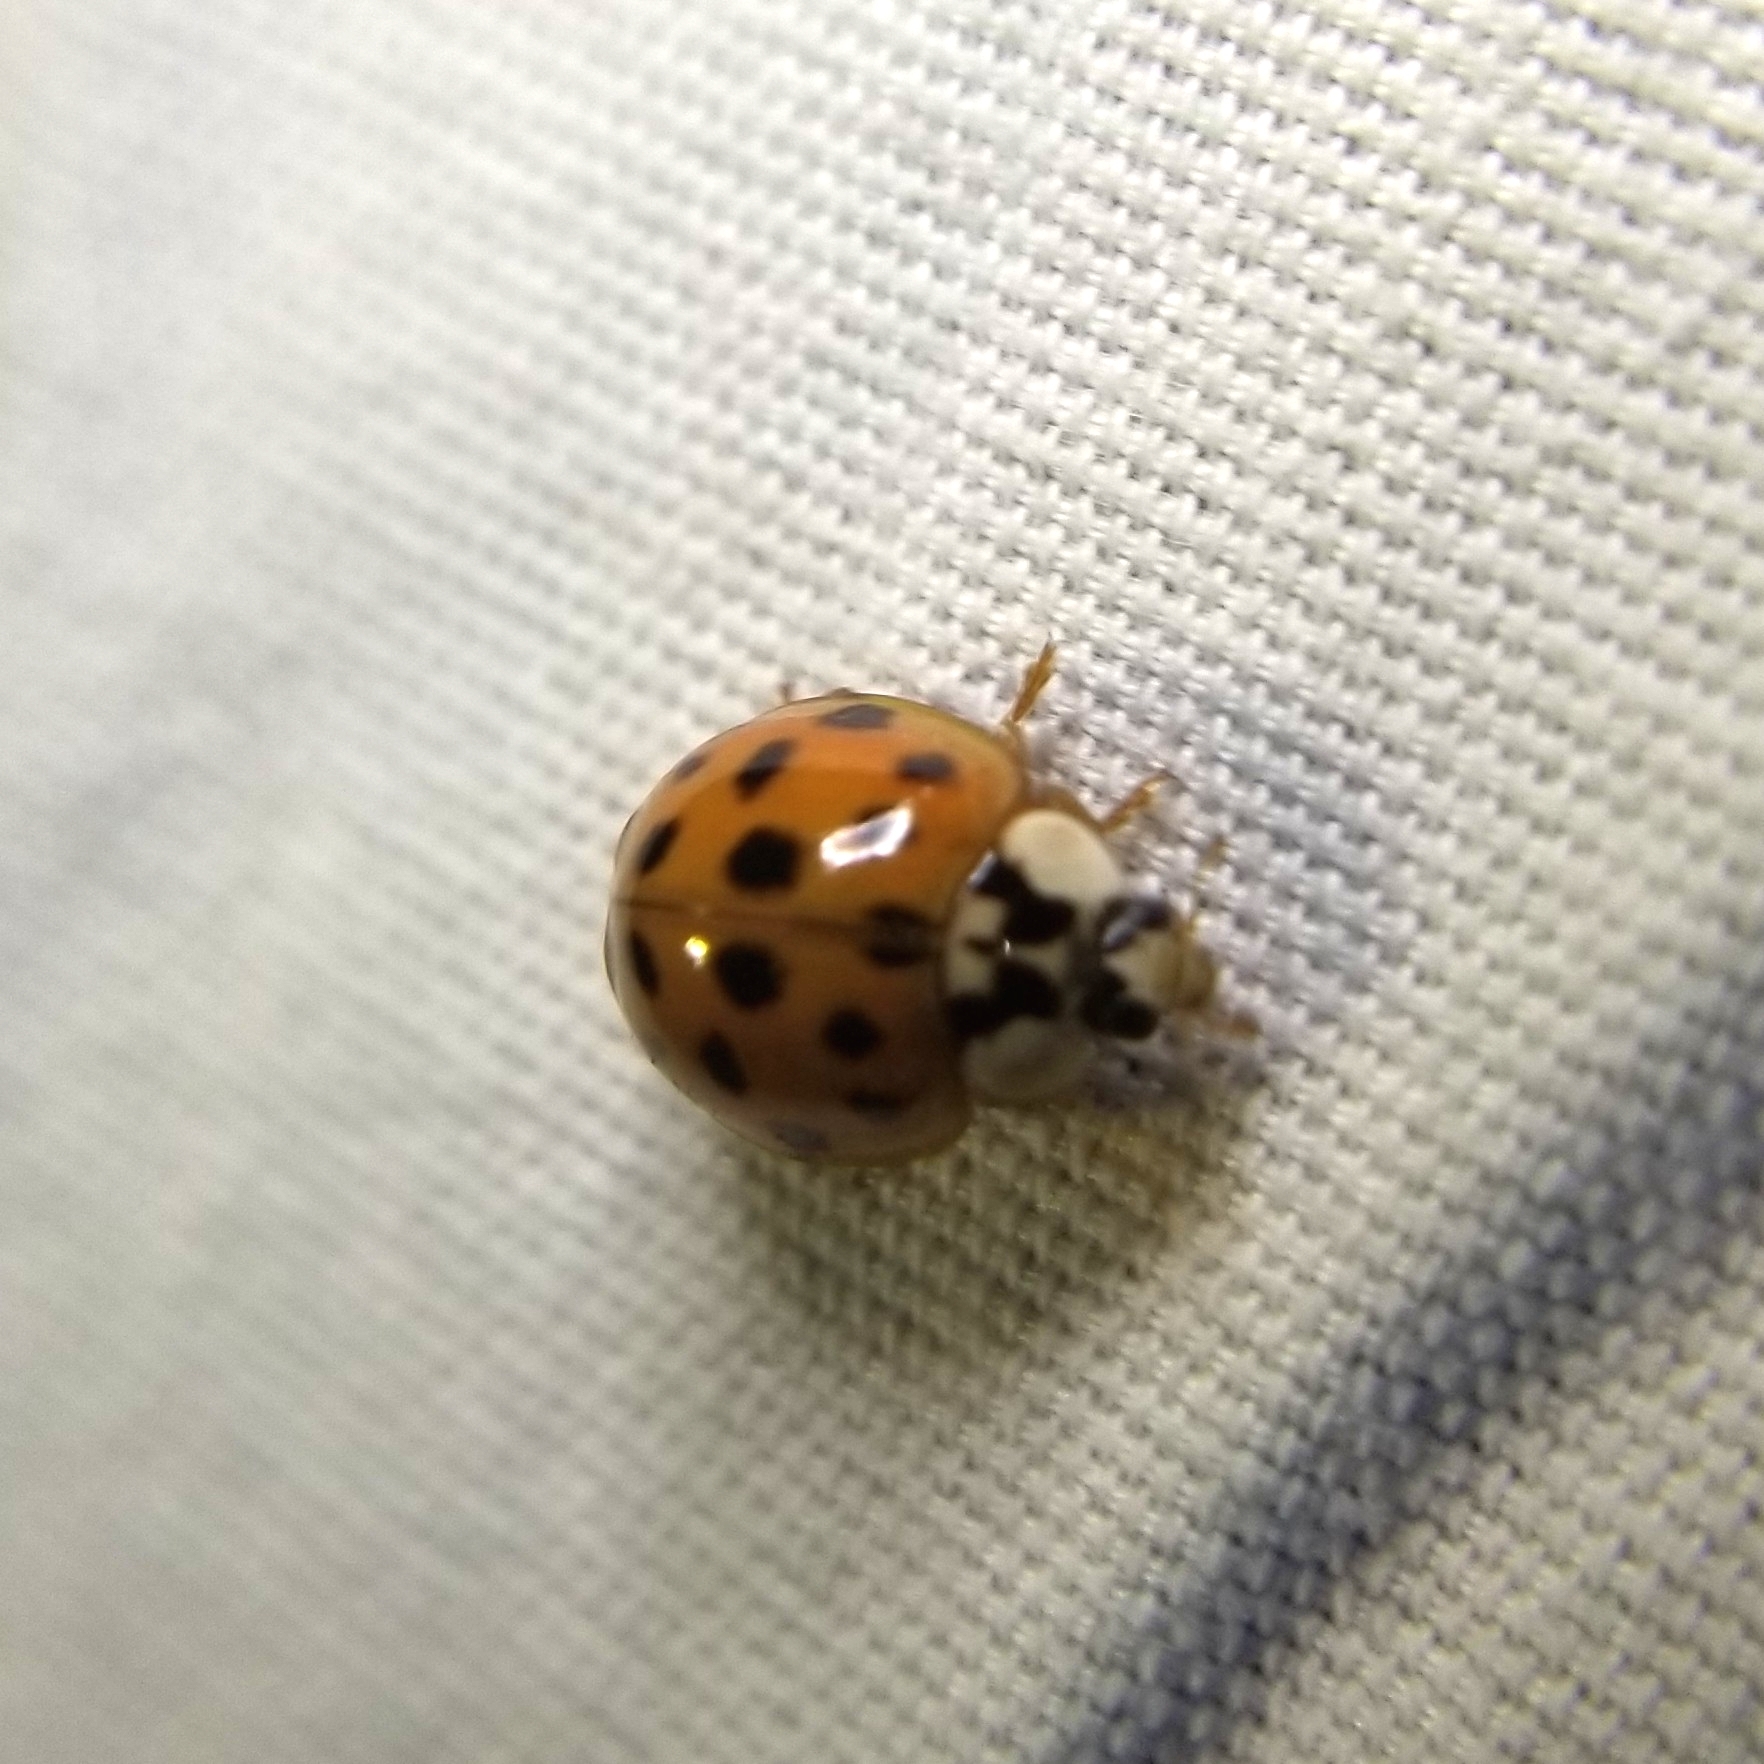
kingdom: Animalia
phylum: Arthropoda
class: Insecta
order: Coleoptera
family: Coccinellidae
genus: Harmonia
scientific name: Harmonia axyridis
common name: Harlequin ladybird
